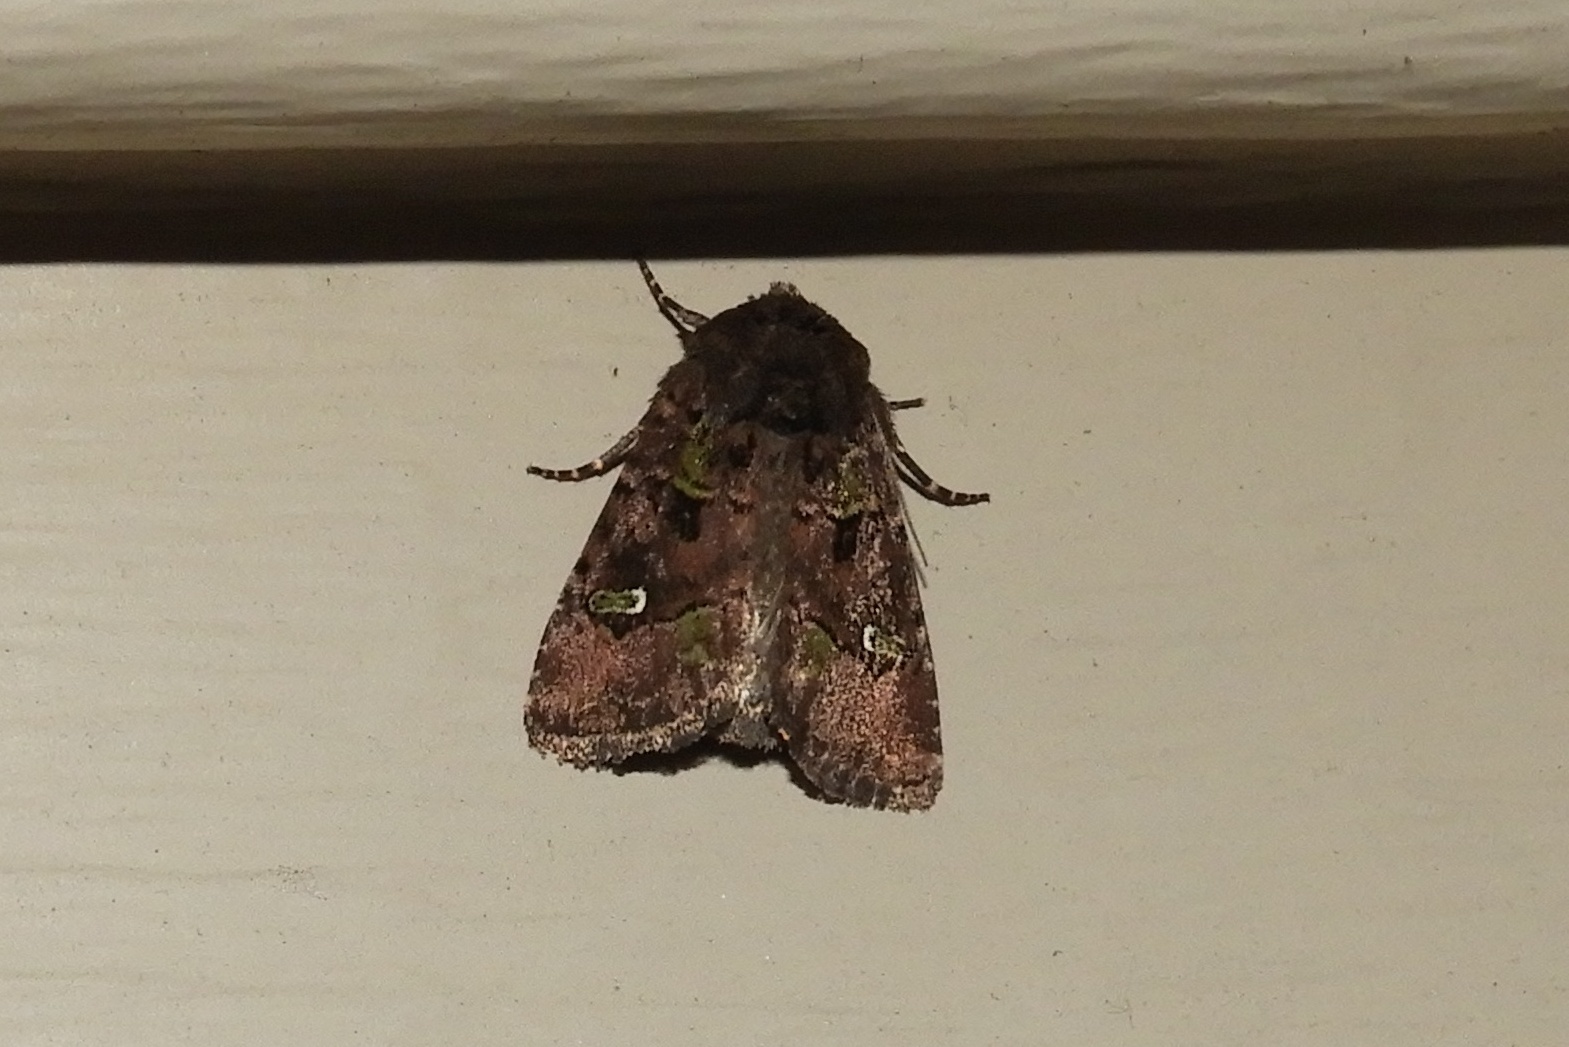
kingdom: Animalia
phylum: Arthropoda
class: Insecta
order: Lepidoptera
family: Noctuidae
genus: Lacinipolia
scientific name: Lacinipolia renigera
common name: Kidney-spotted minor
